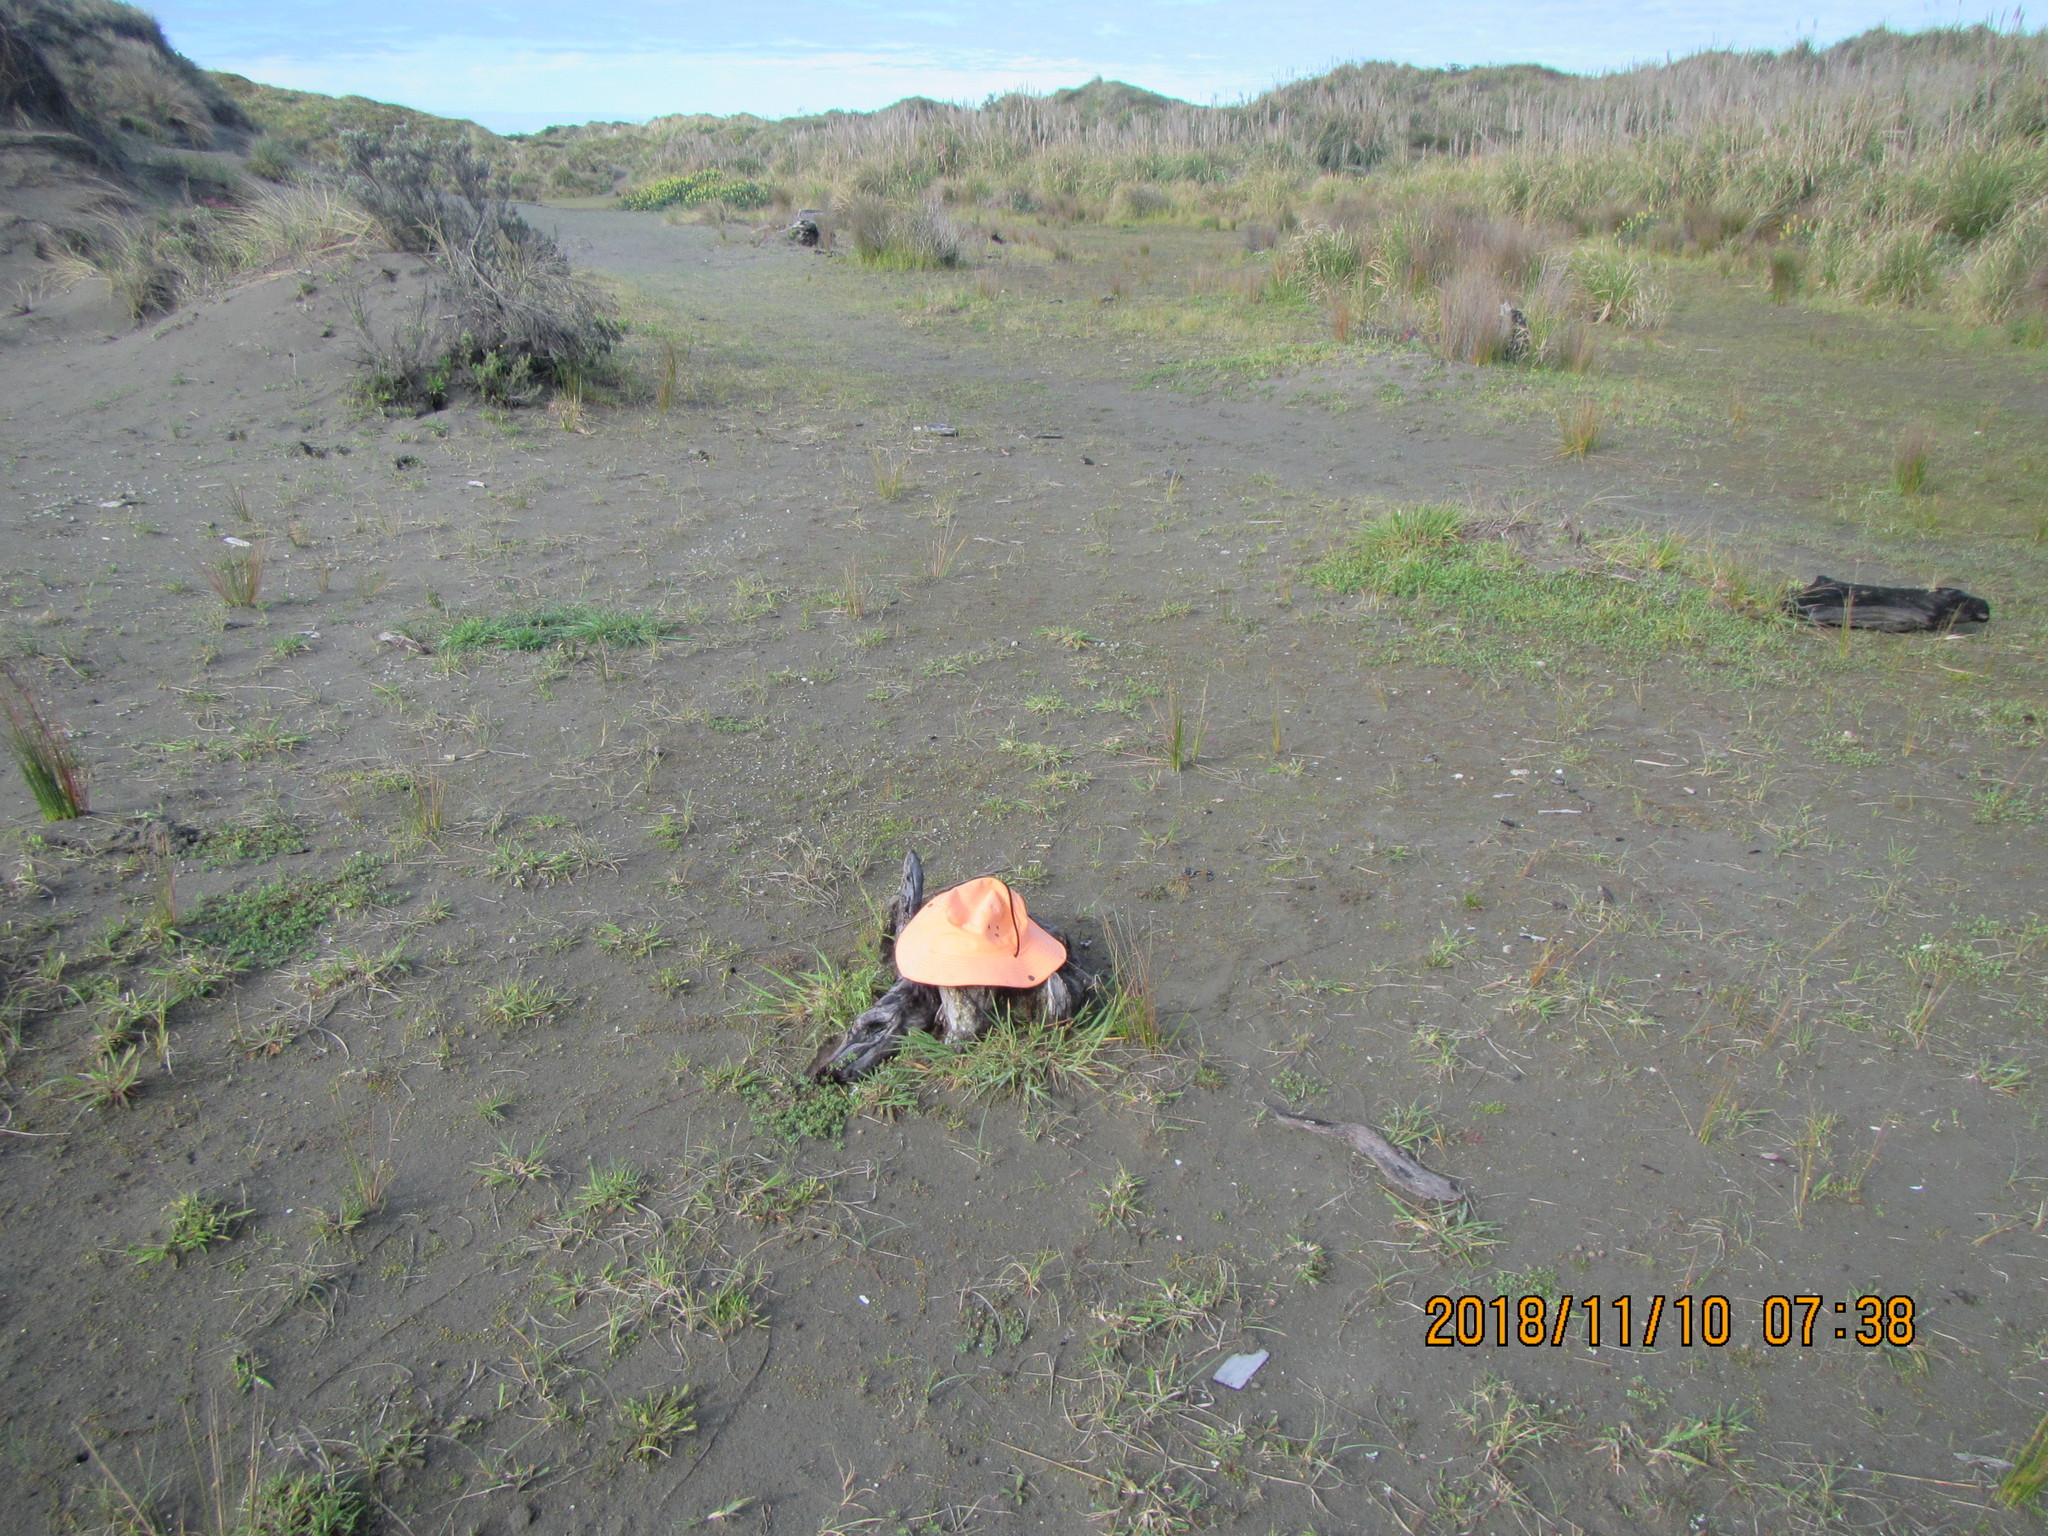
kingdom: Animalia
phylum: Arthropoda
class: Arachnida
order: Araneae
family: Theridiidae
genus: Latrodectus
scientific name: Latrodectus katipo
